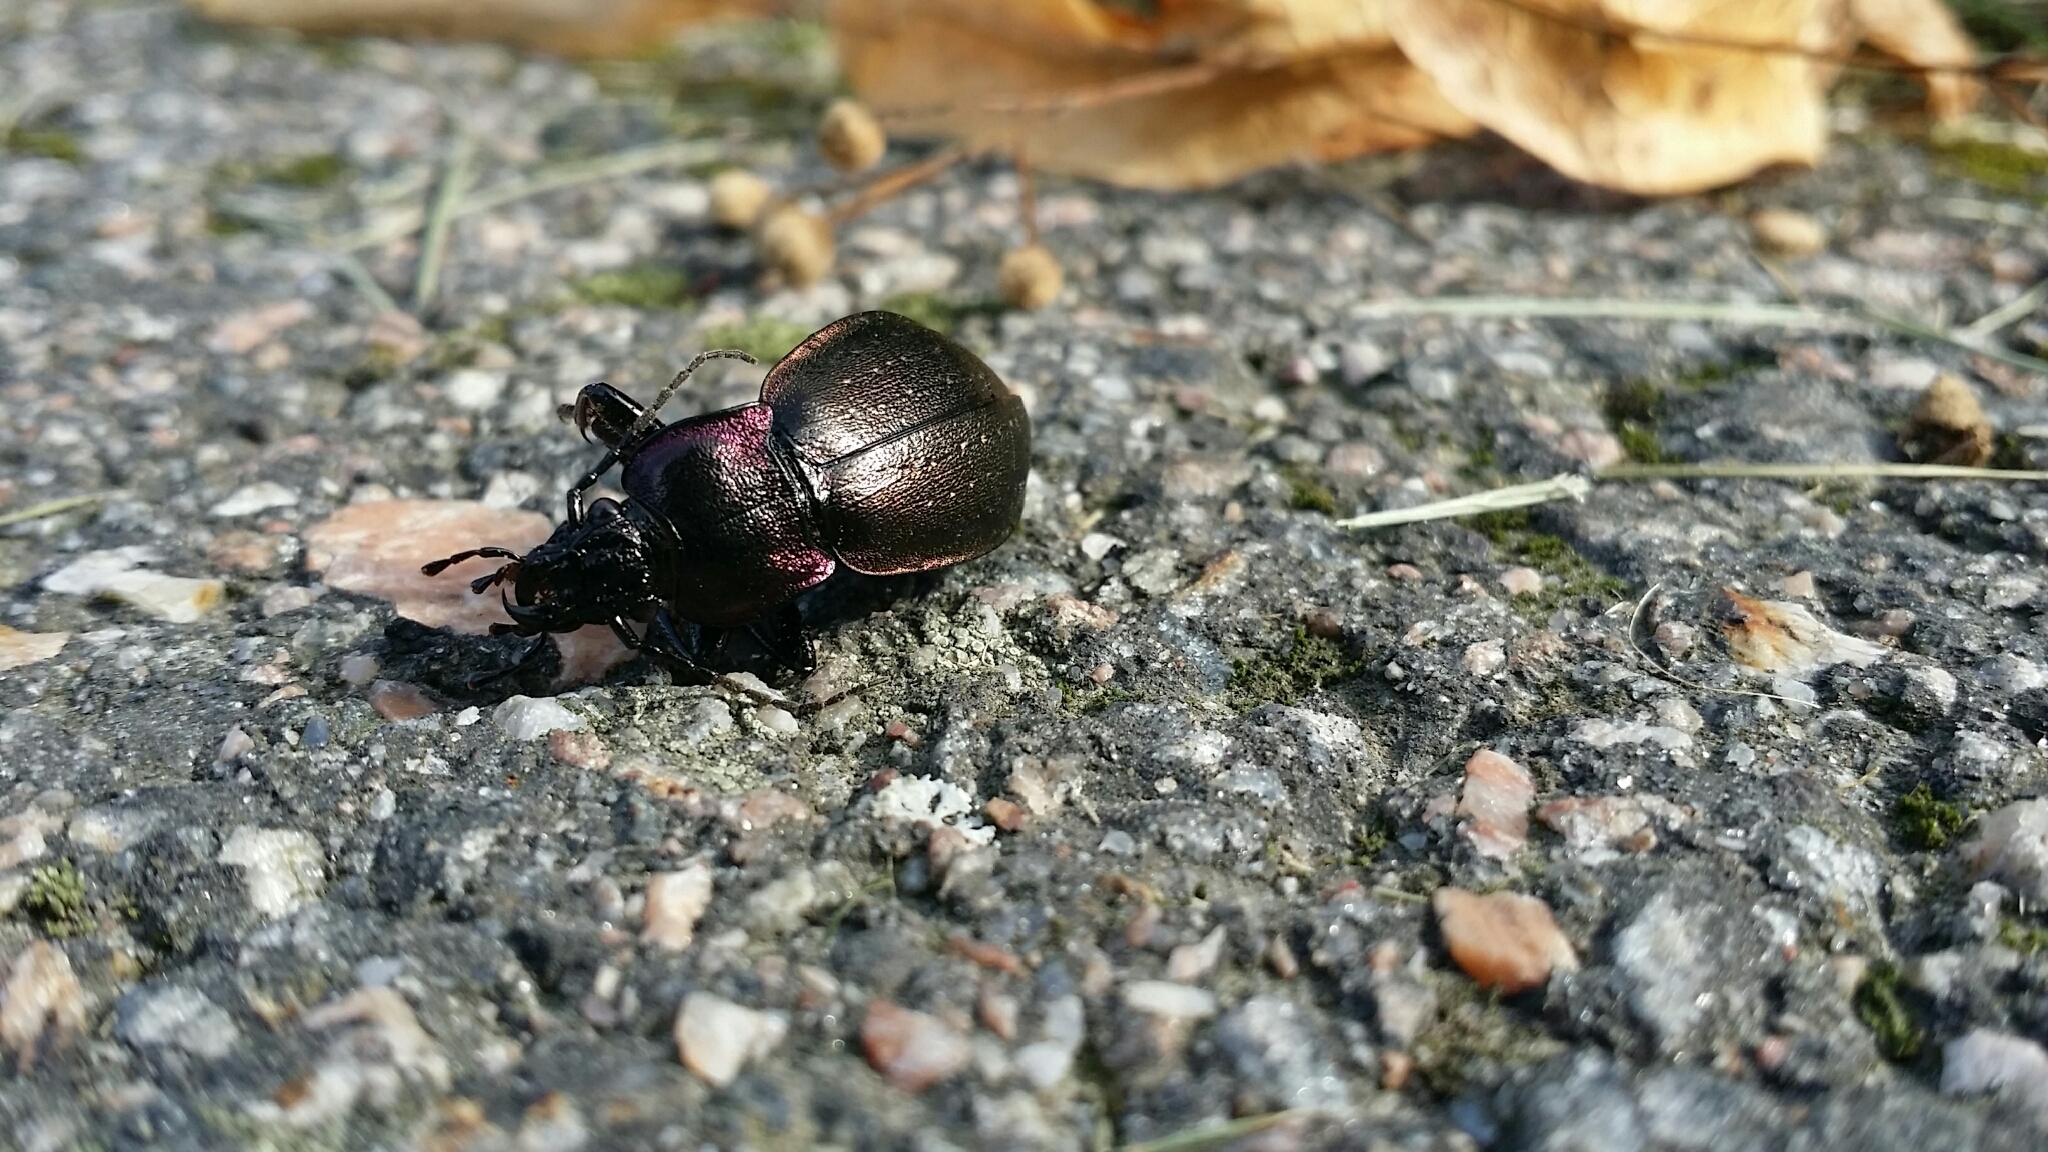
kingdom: Animalia
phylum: Arthropoda
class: Insecta
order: Coleoptera
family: Carabidae
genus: Carabus
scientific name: Carabus nemoralis
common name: European ground beetle
